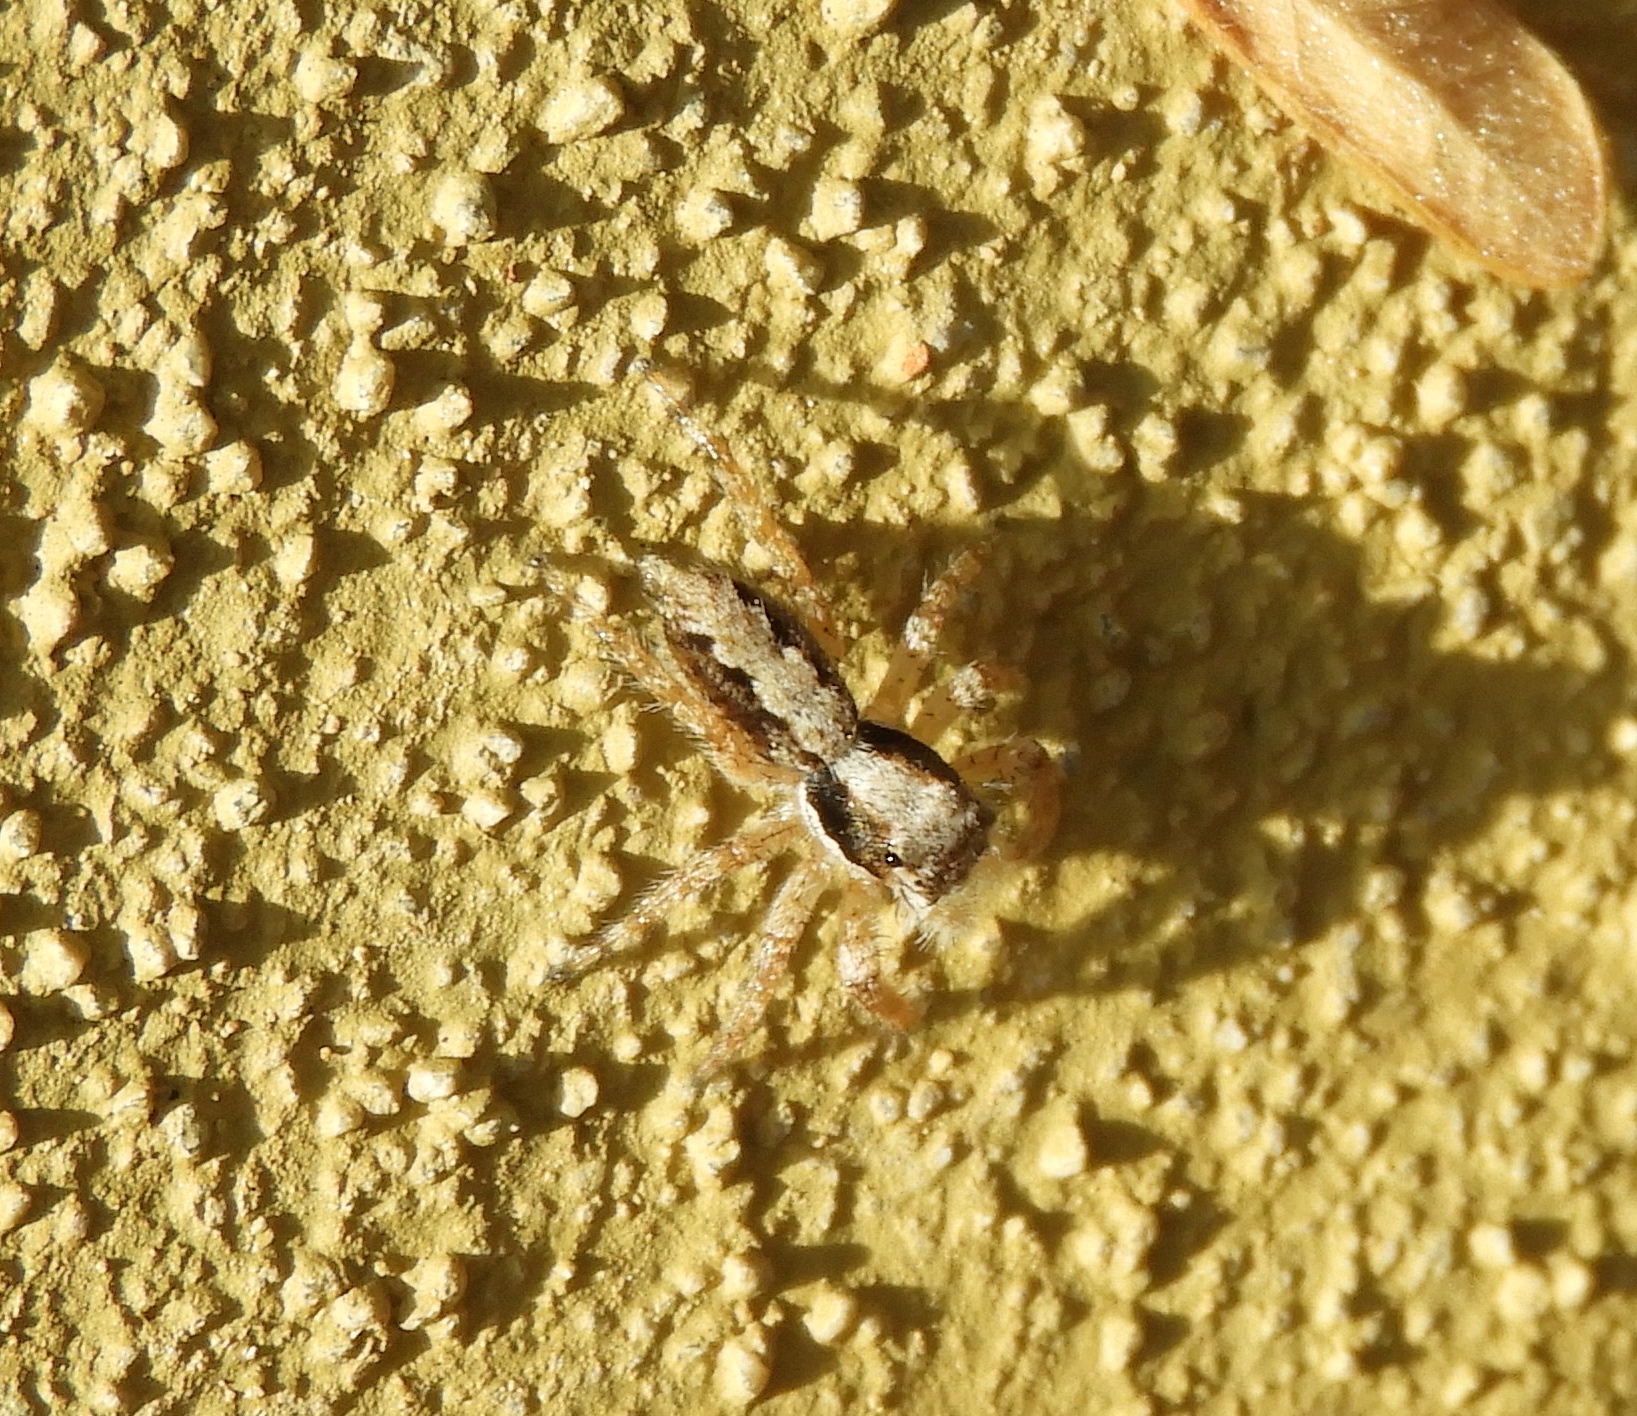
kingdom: Animalia
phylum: Arthropoda
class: Arachnida
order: Araneae
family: Salticidae
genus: Balmaceda
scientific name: Balmaceda
